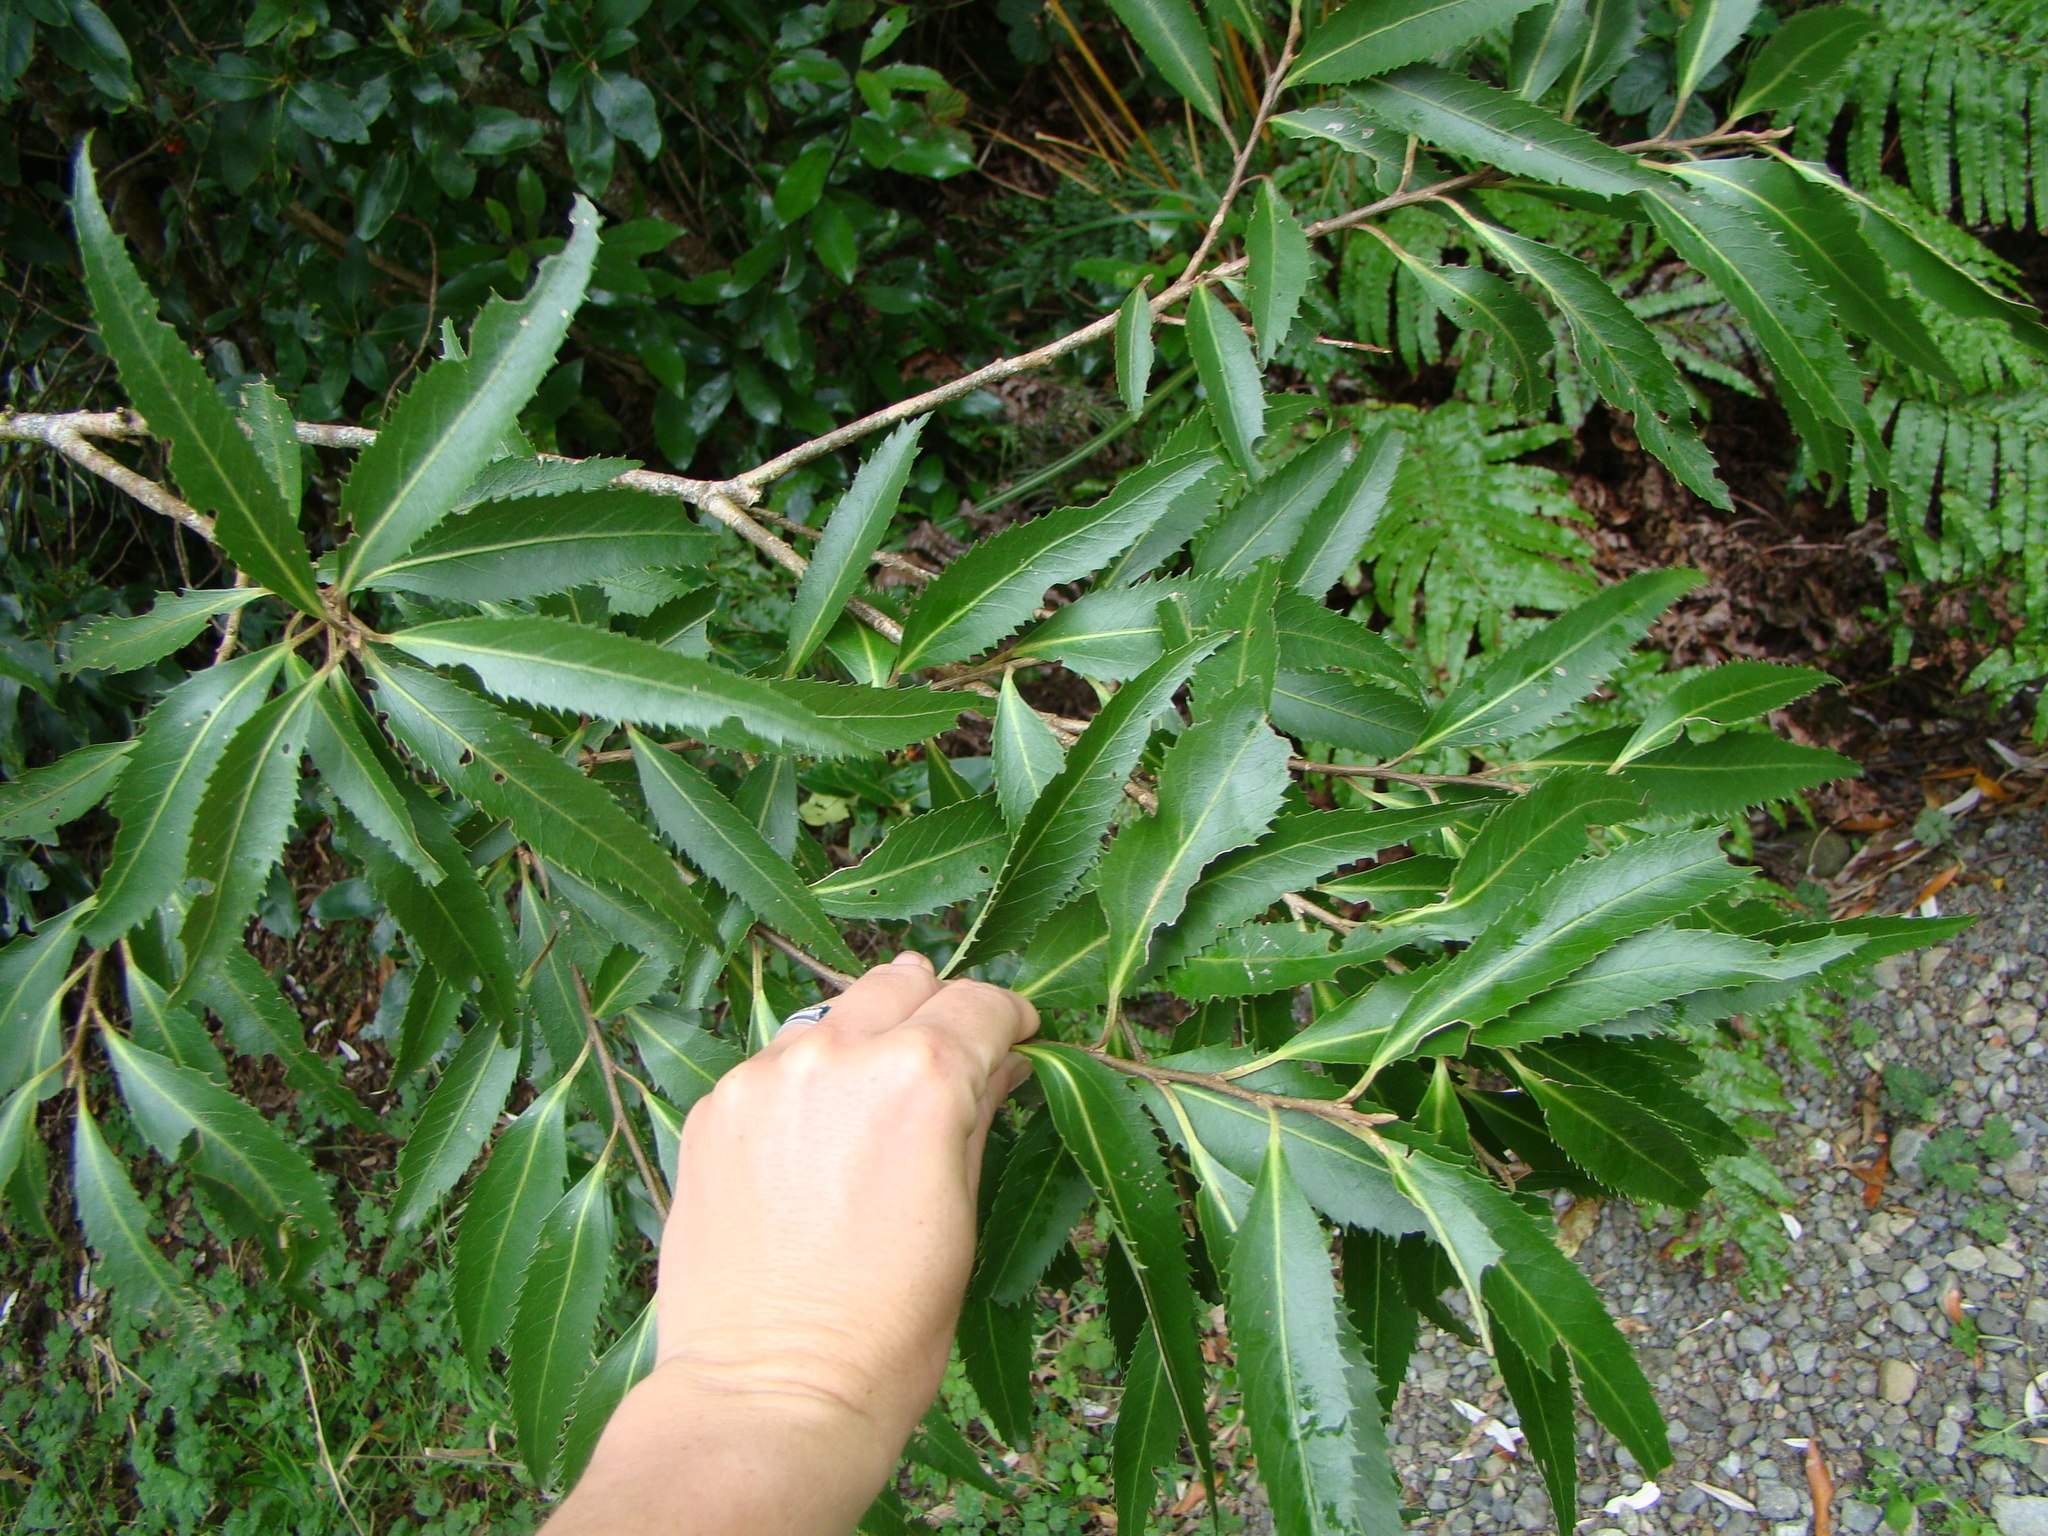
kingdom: Plantae
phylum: Tracheophyta
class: Magnoliopsida
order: Malvales
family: Malvaceae
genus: Hoheria
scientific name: Hoheria sexstylosa
